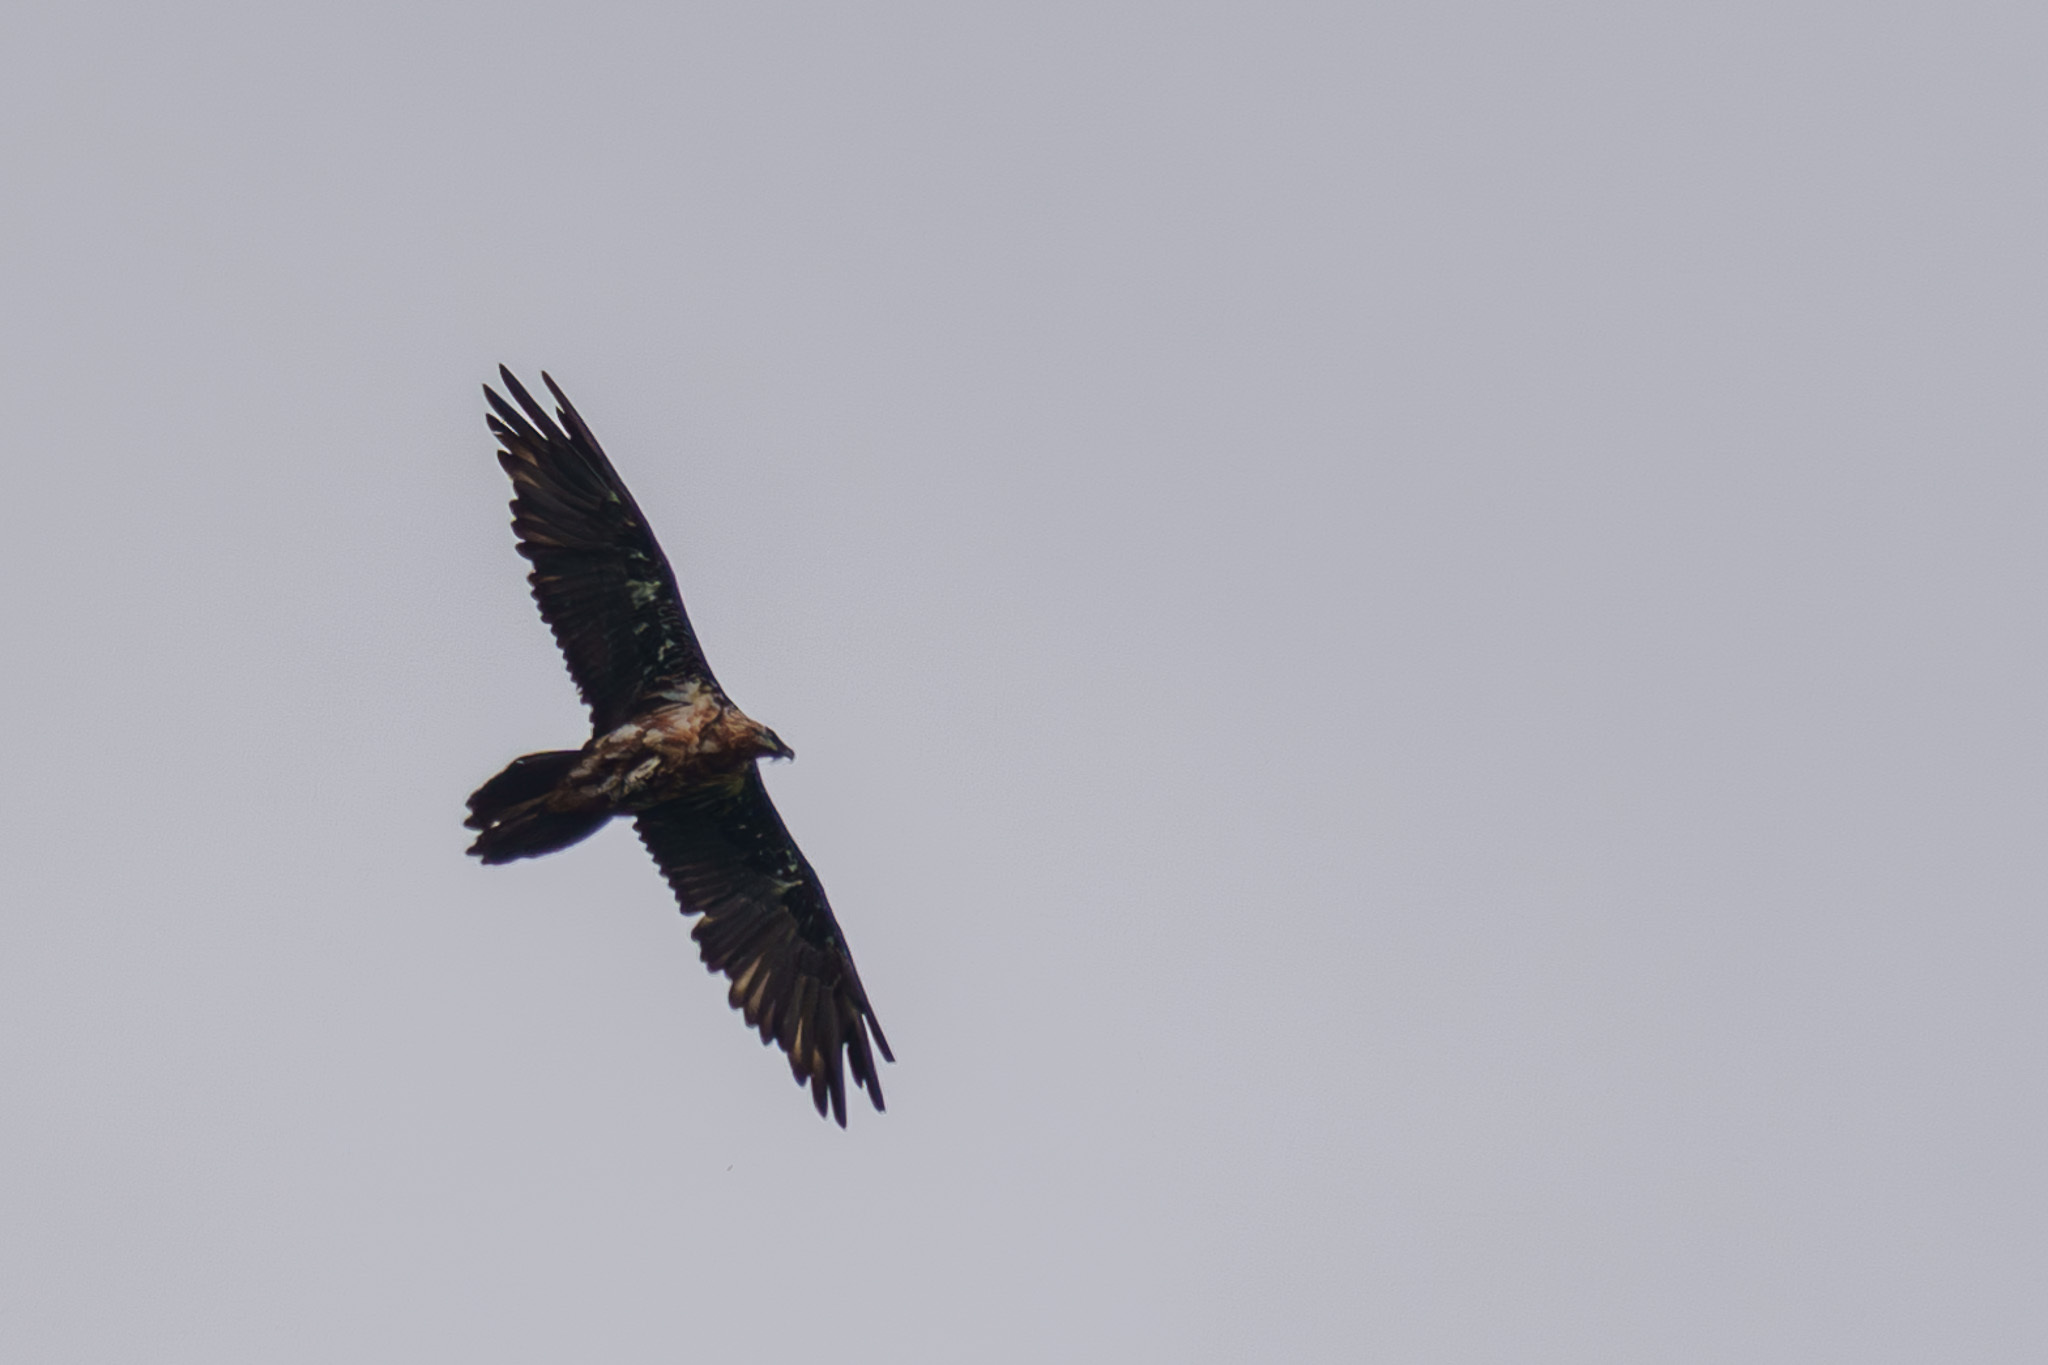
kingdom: Animalia
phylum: Chordata
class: Aves
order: Accipitriformes
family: Accipitridae
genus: Gypaetus
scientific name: Gypaetus barbatus
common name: Bearded vulture
